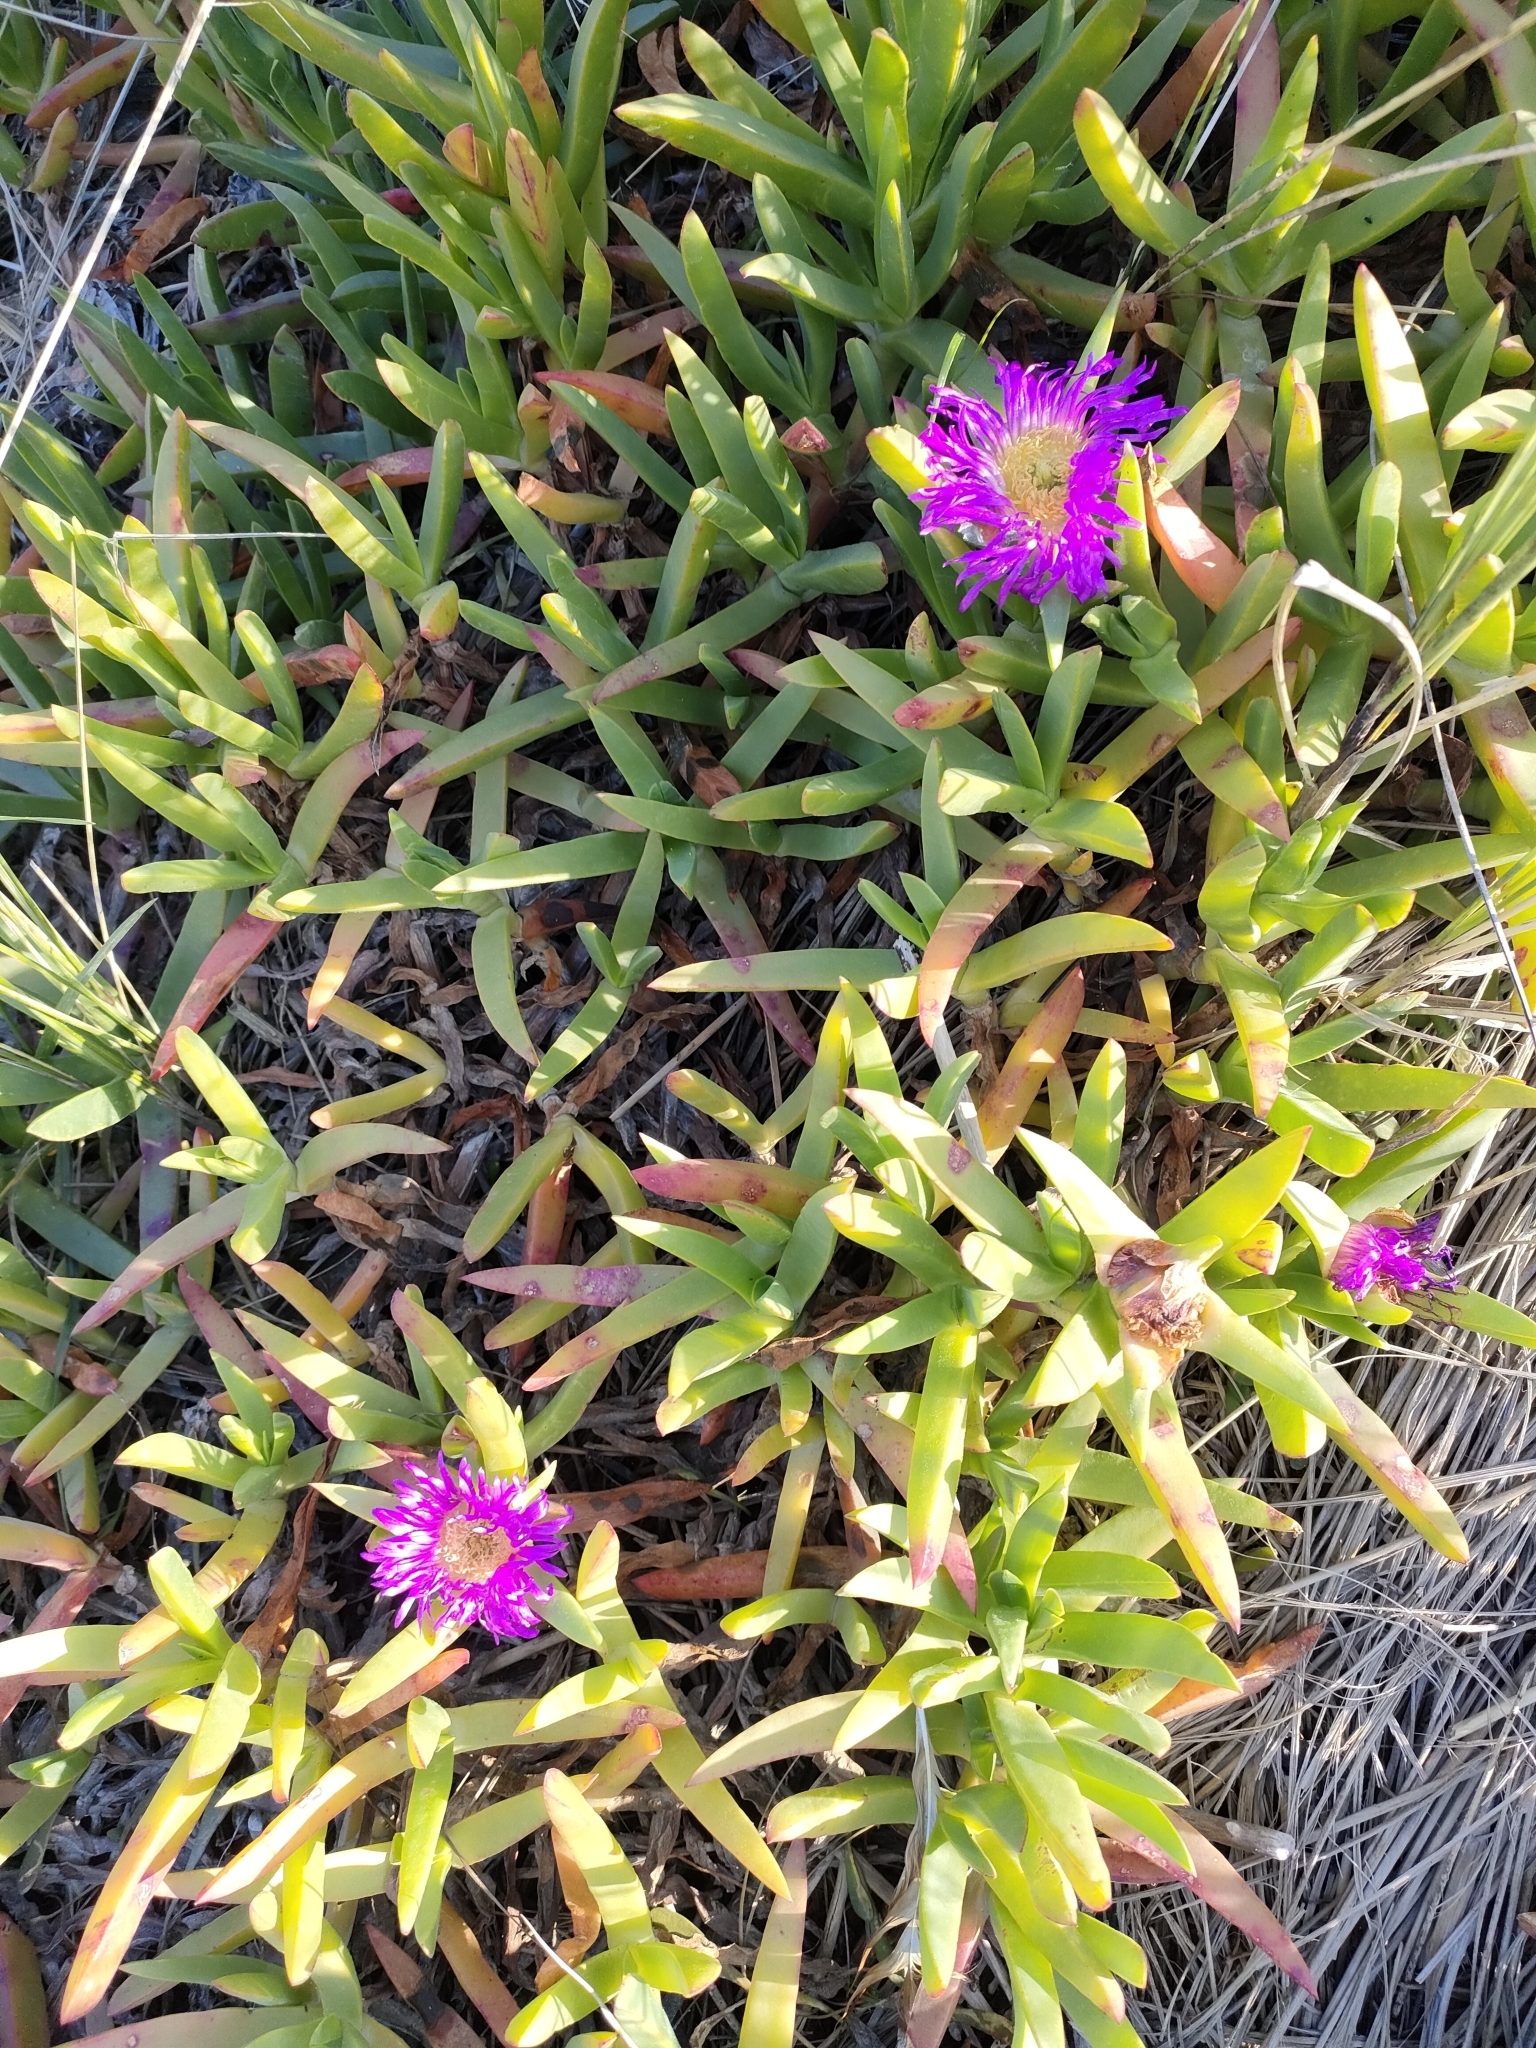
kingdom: Plantae
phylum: Tracheophyta
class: Magnoliopsida
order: Caryophyllales
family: Aizoaceae
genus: Carpobrotus
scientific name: Carpobrotus chilensis
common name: Sea fig
